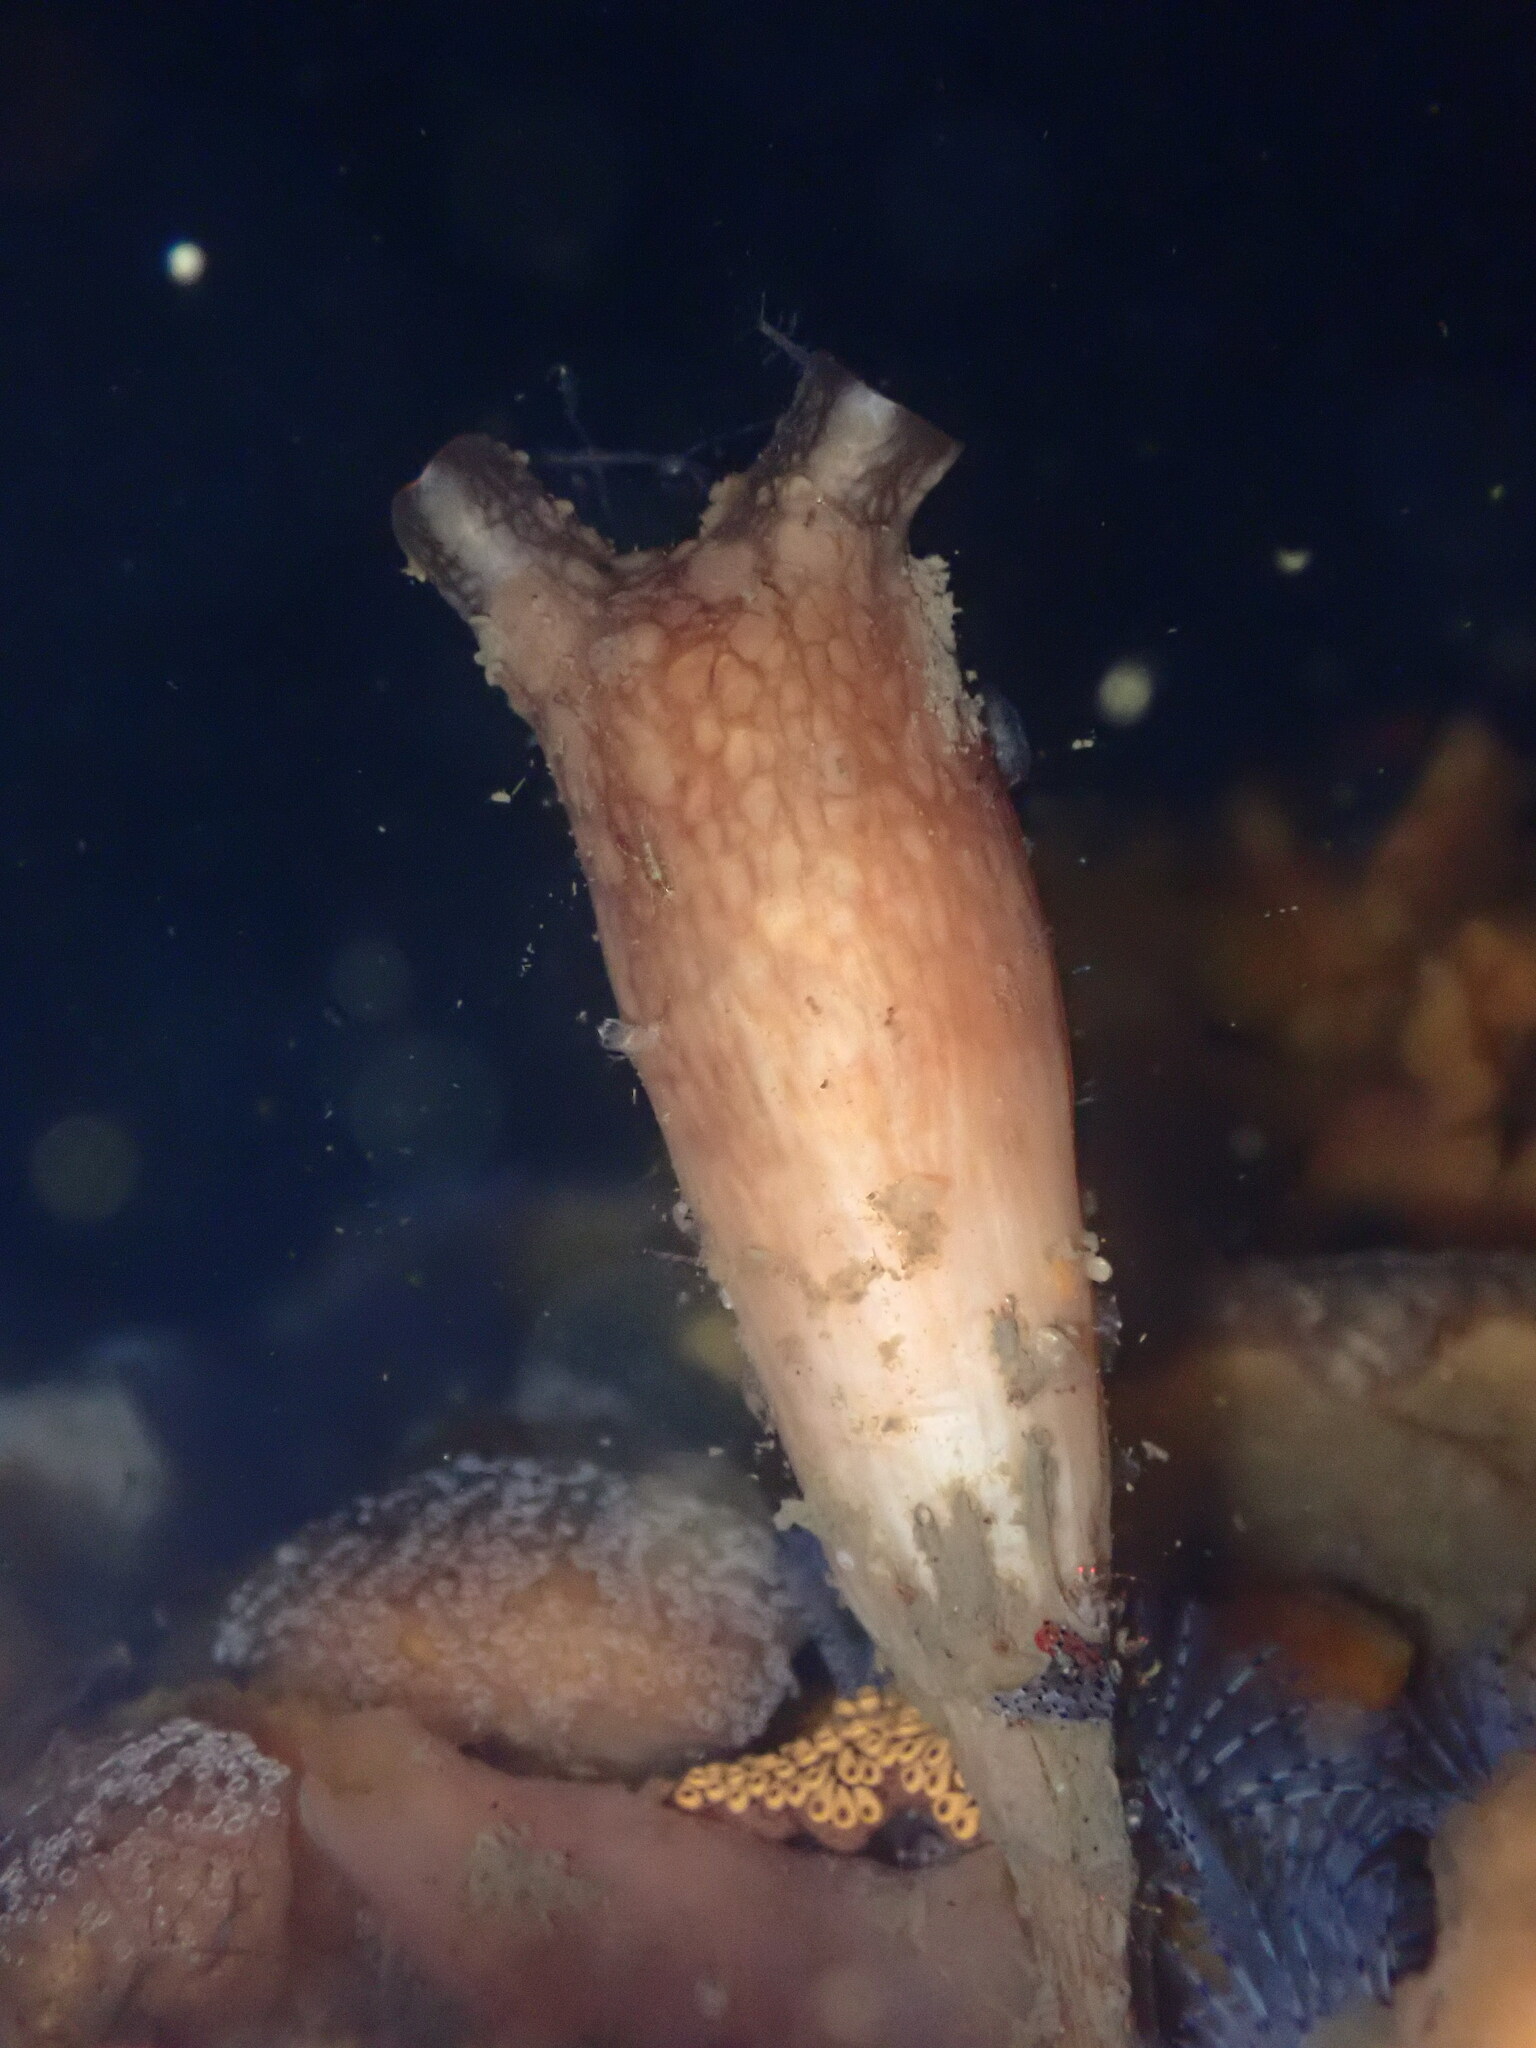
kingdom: Animalia
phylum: Chordata
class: Ascidiacea
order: Stolidobranchia
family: Styelidae
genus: Styela
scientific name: Styela clava
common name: Leathery sea squirt
